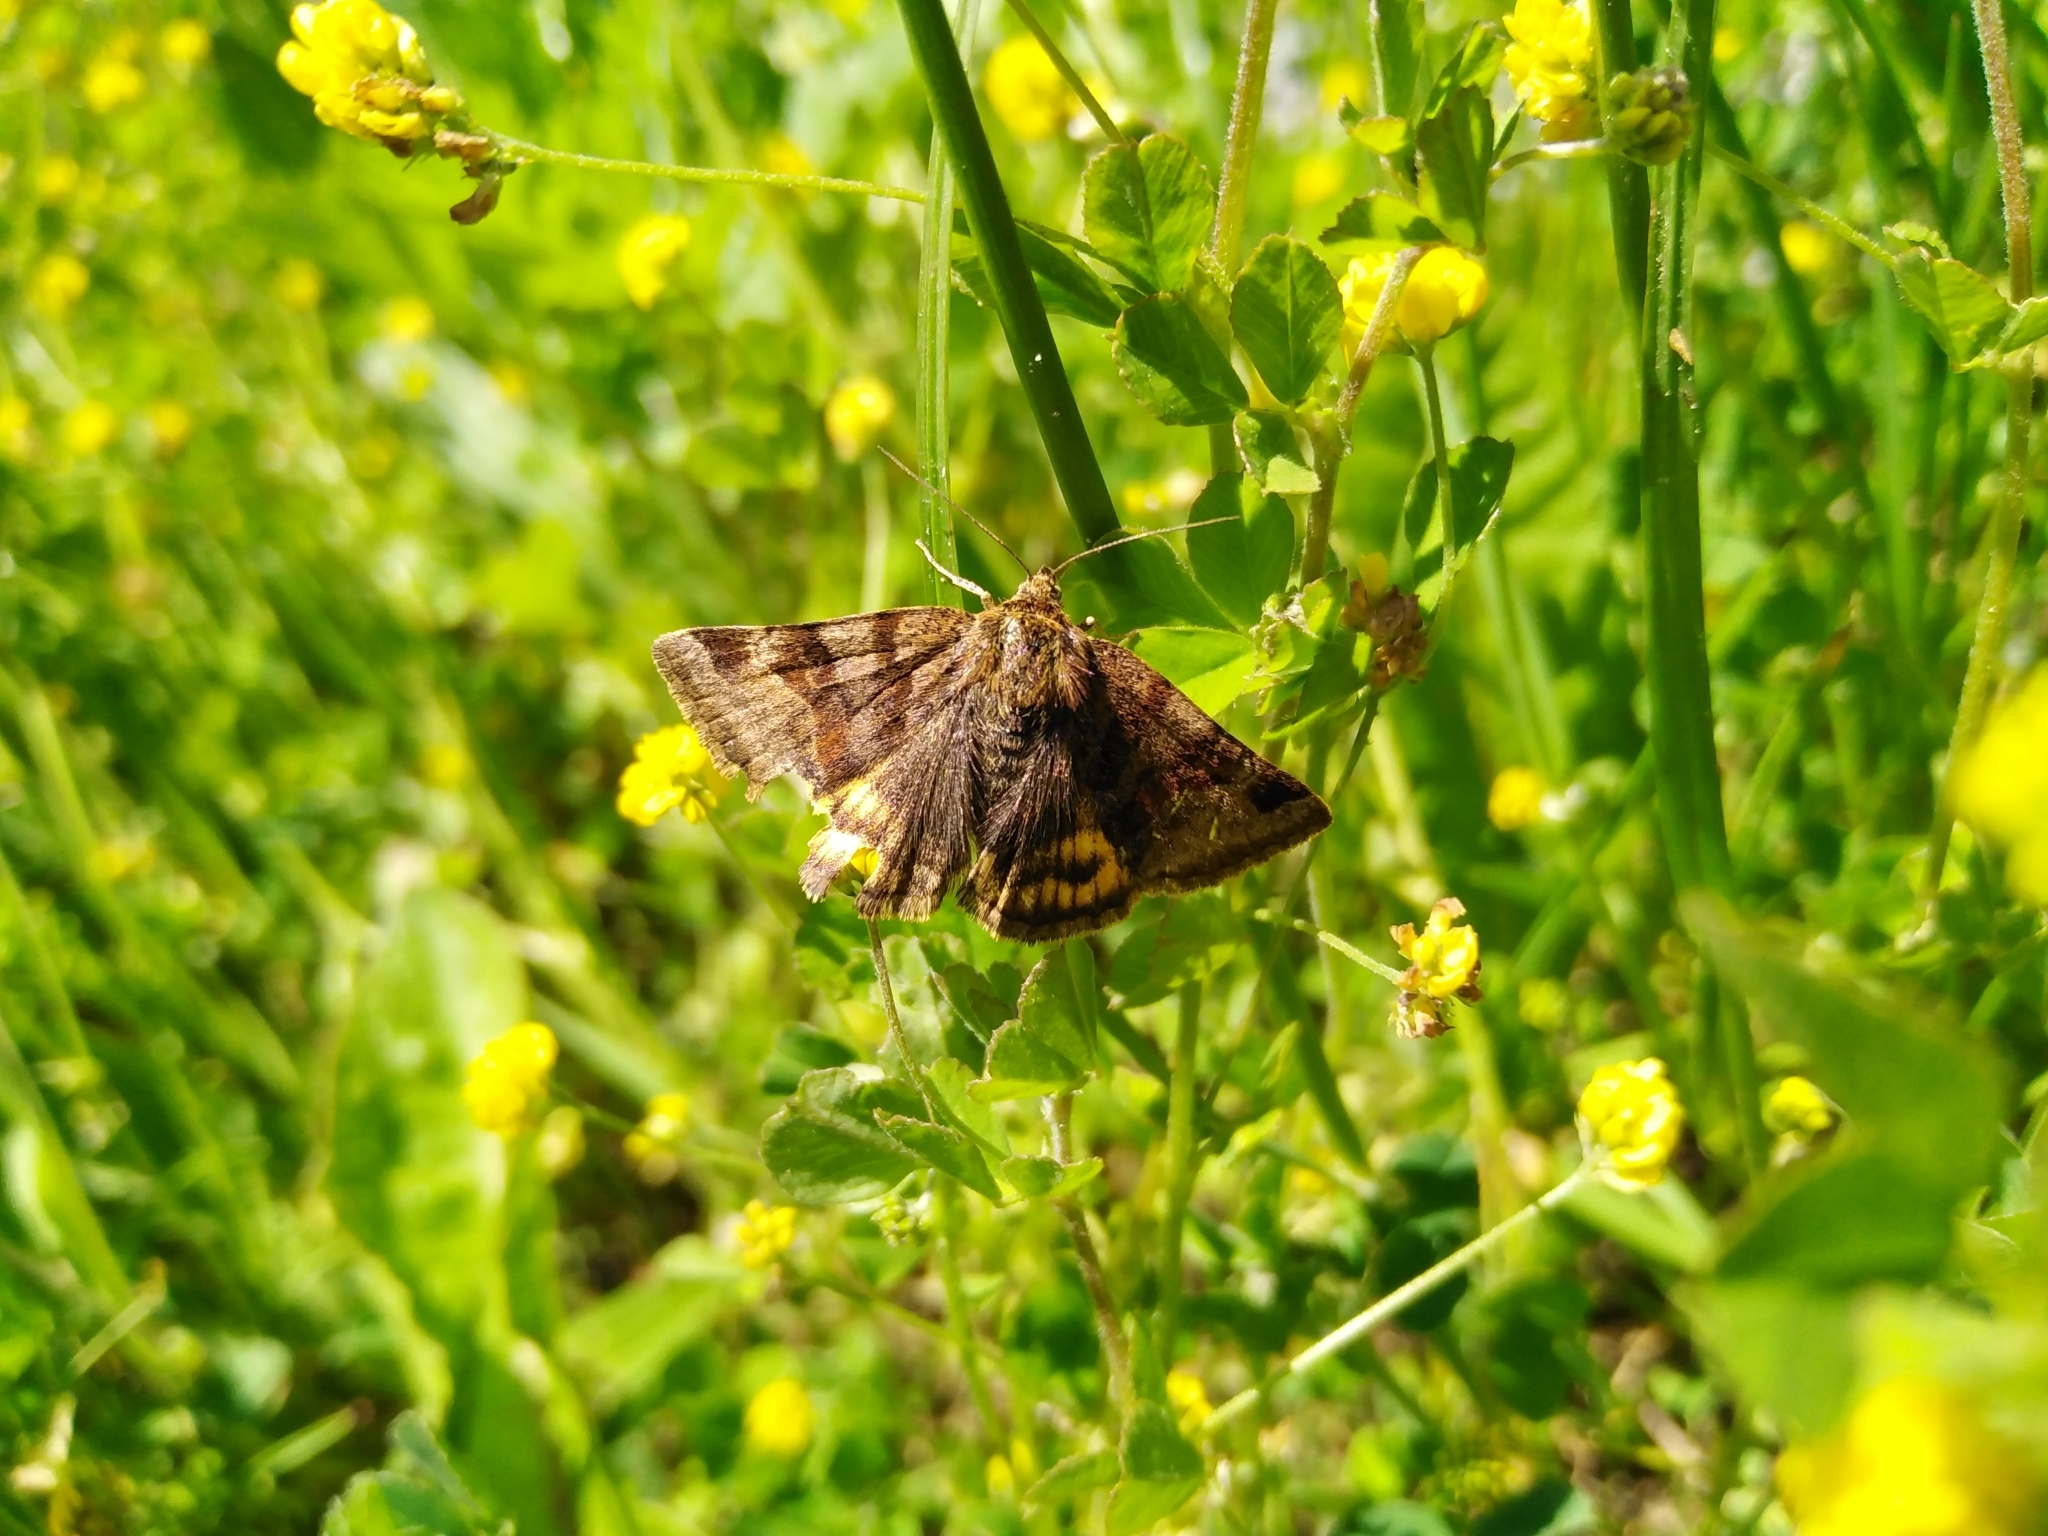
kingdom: Animalia
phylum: Arthropoda
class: Insecta
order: Lepidoptera
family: Erebidae
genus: Euclidia
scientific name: Euclidia glyphica
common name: Burnet companion
